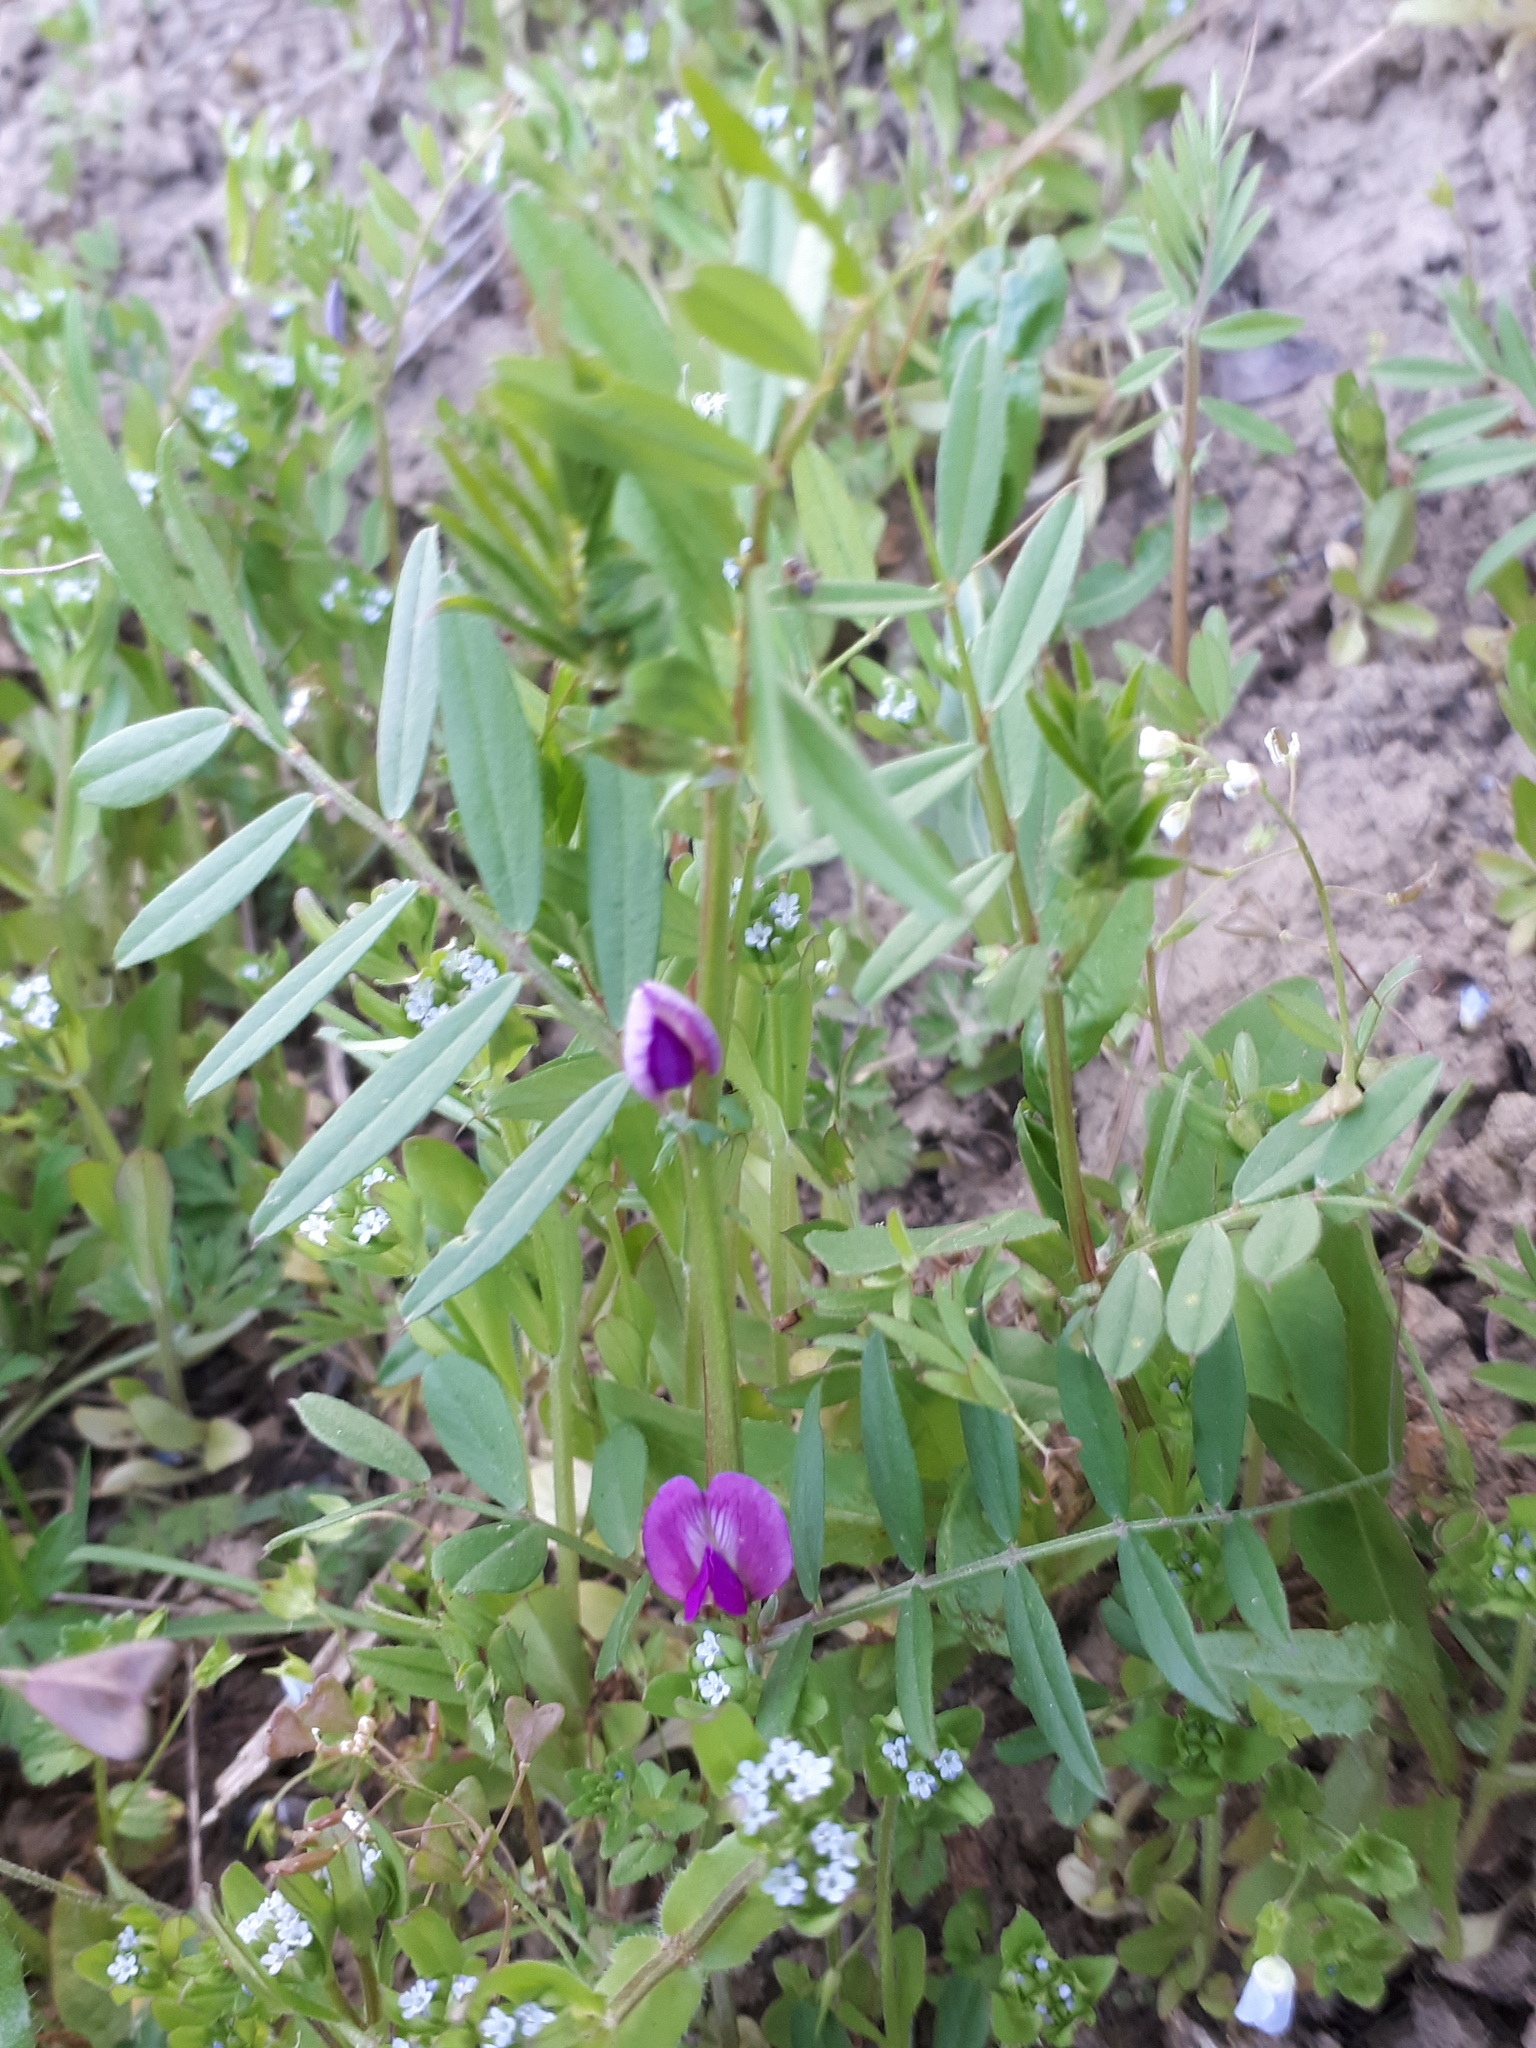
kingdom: Plantae
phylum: Tracheophyta
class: Magnoliopsida
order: Fabales
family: Fabaceae
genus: Vicia
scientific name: Vicia sativa
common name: Garden vetch
